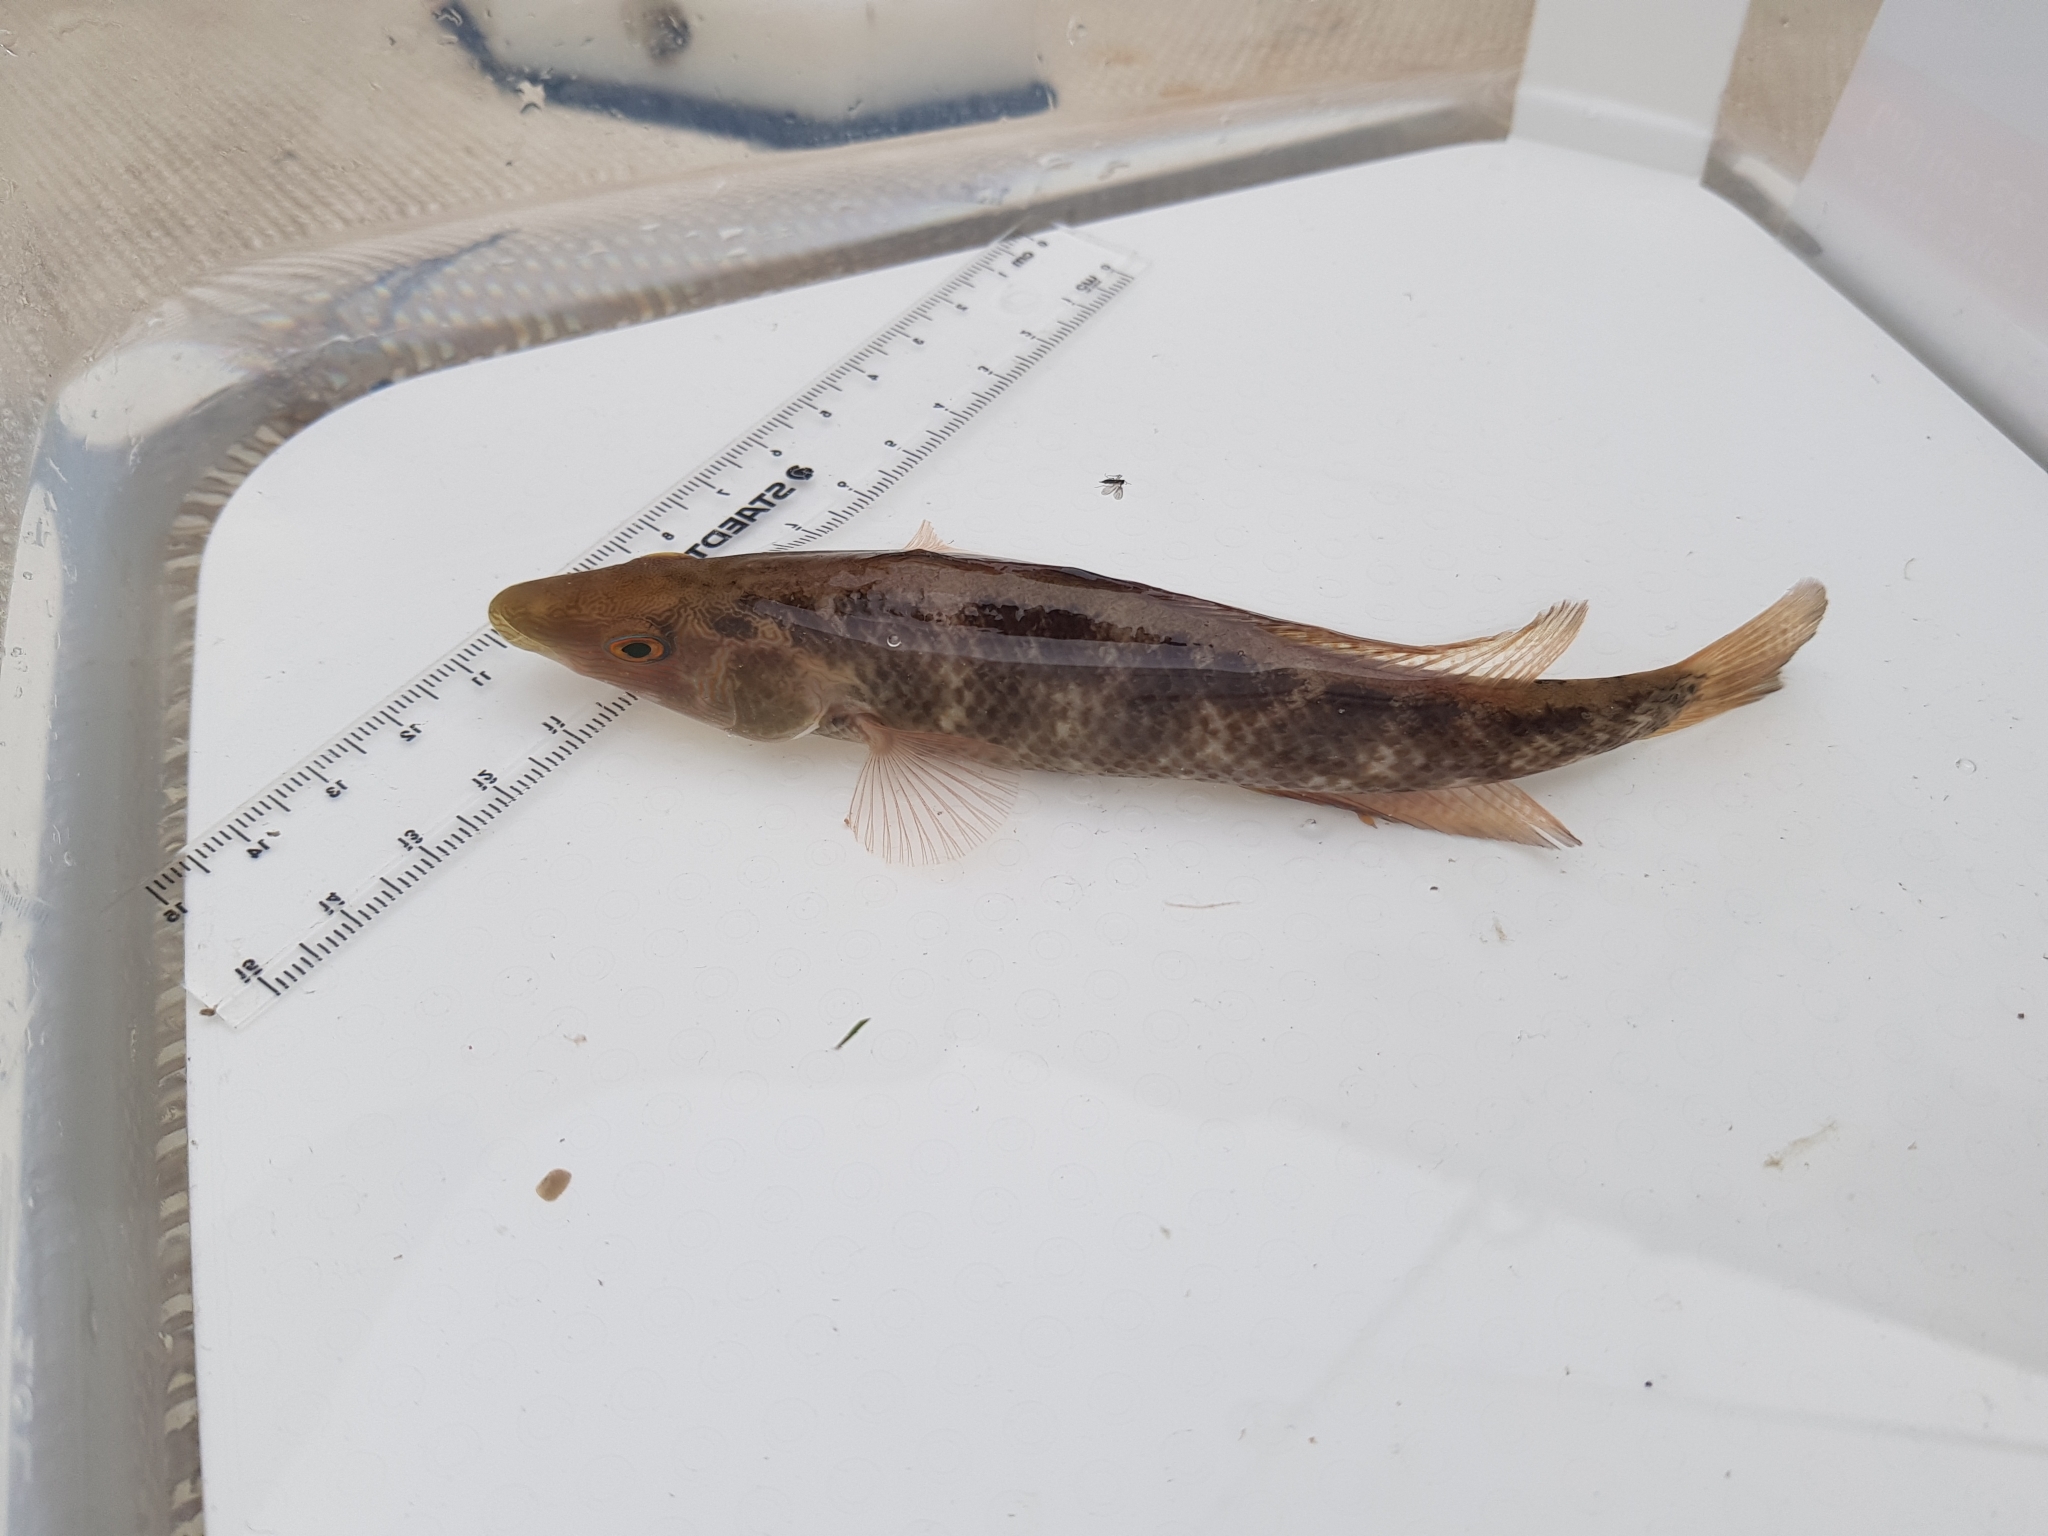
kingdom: Animalia
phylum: Chordata
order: Perciformes
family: Odacidae
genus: Neoodax
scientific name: Neoodax balteatus
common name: Ground mullet
